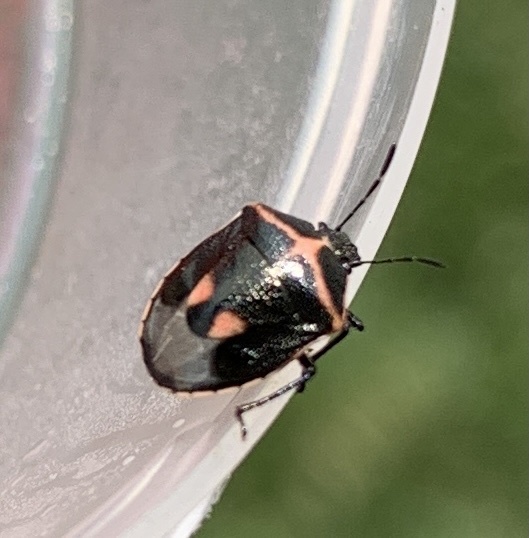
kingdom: Animalia
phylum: Arthropoda
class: Insecta
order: Hemiptera
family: Pentatomidae
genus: Cosmopepla
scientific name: Cosmopepla lintneriana
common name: Twice-stabbed stink bug
